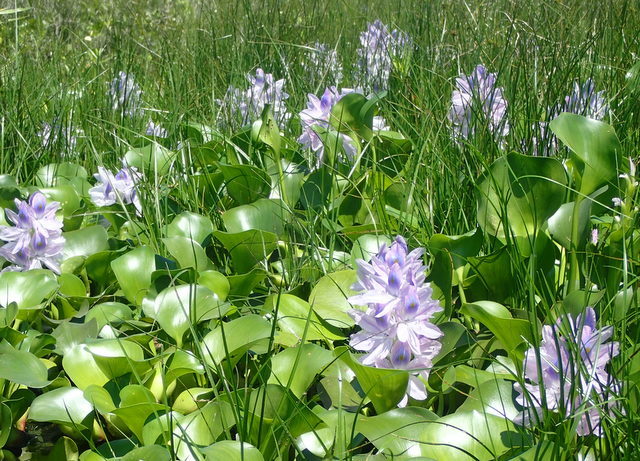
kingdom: Plantae
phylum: Tracheophyta
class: Liliopsida
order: Commelinales
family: Pontederiaceae
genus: Pontederia
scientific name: Pontederia crassipes
